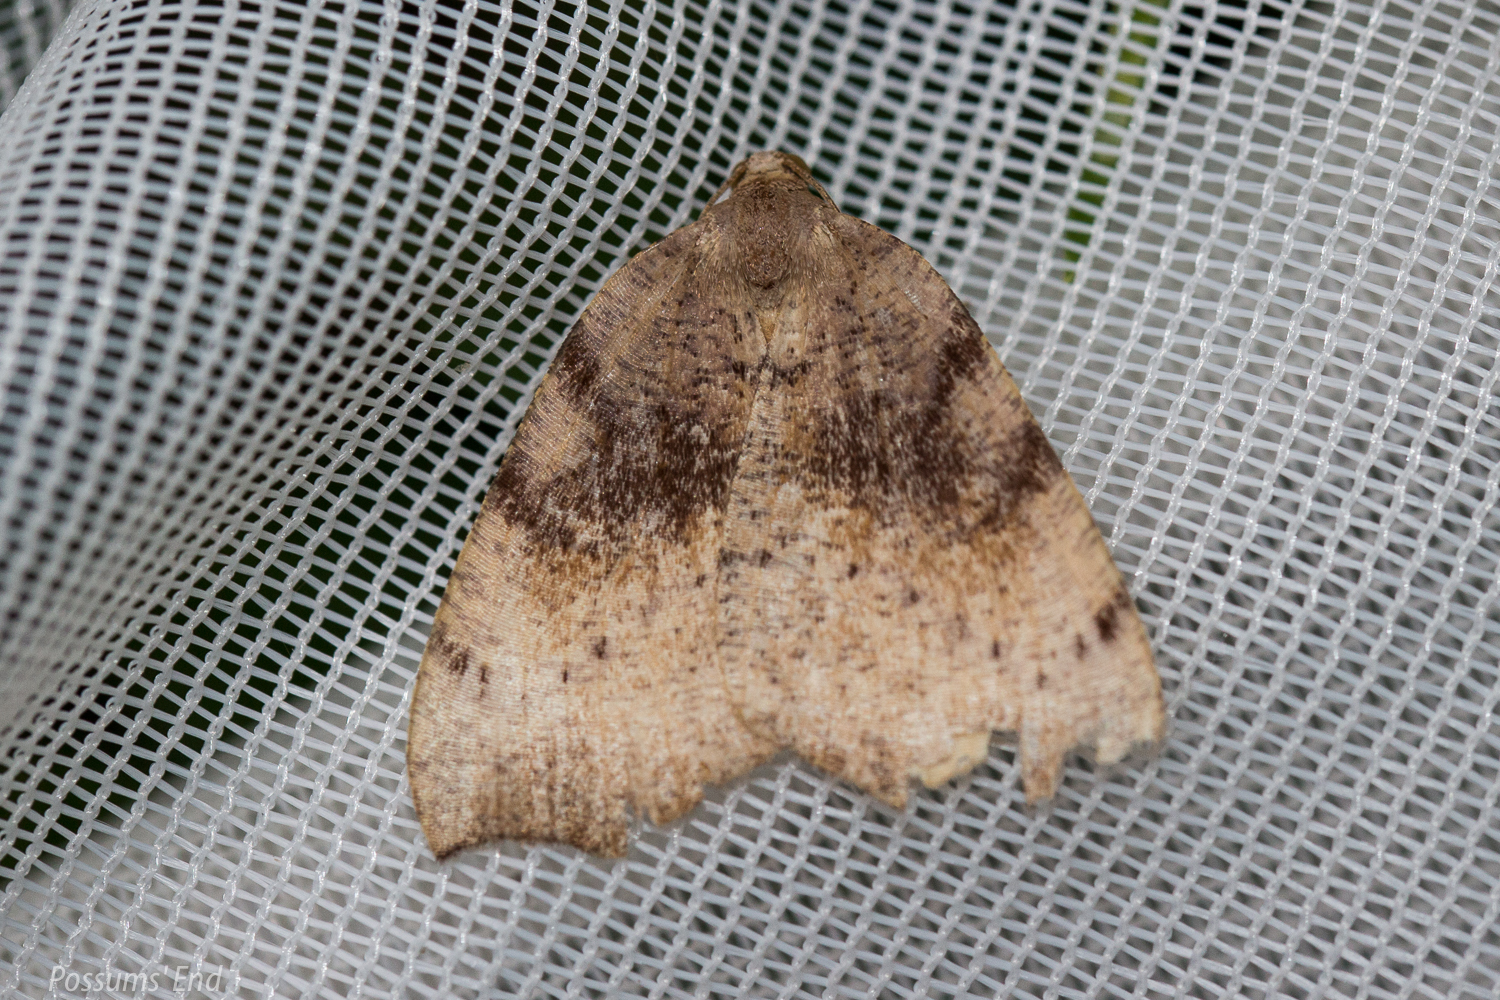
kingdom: Animalia
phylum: Arthropoda
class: Insecta
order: Lepidoptera
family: Geometridae
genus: Sestra
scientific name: Sestra flexata
